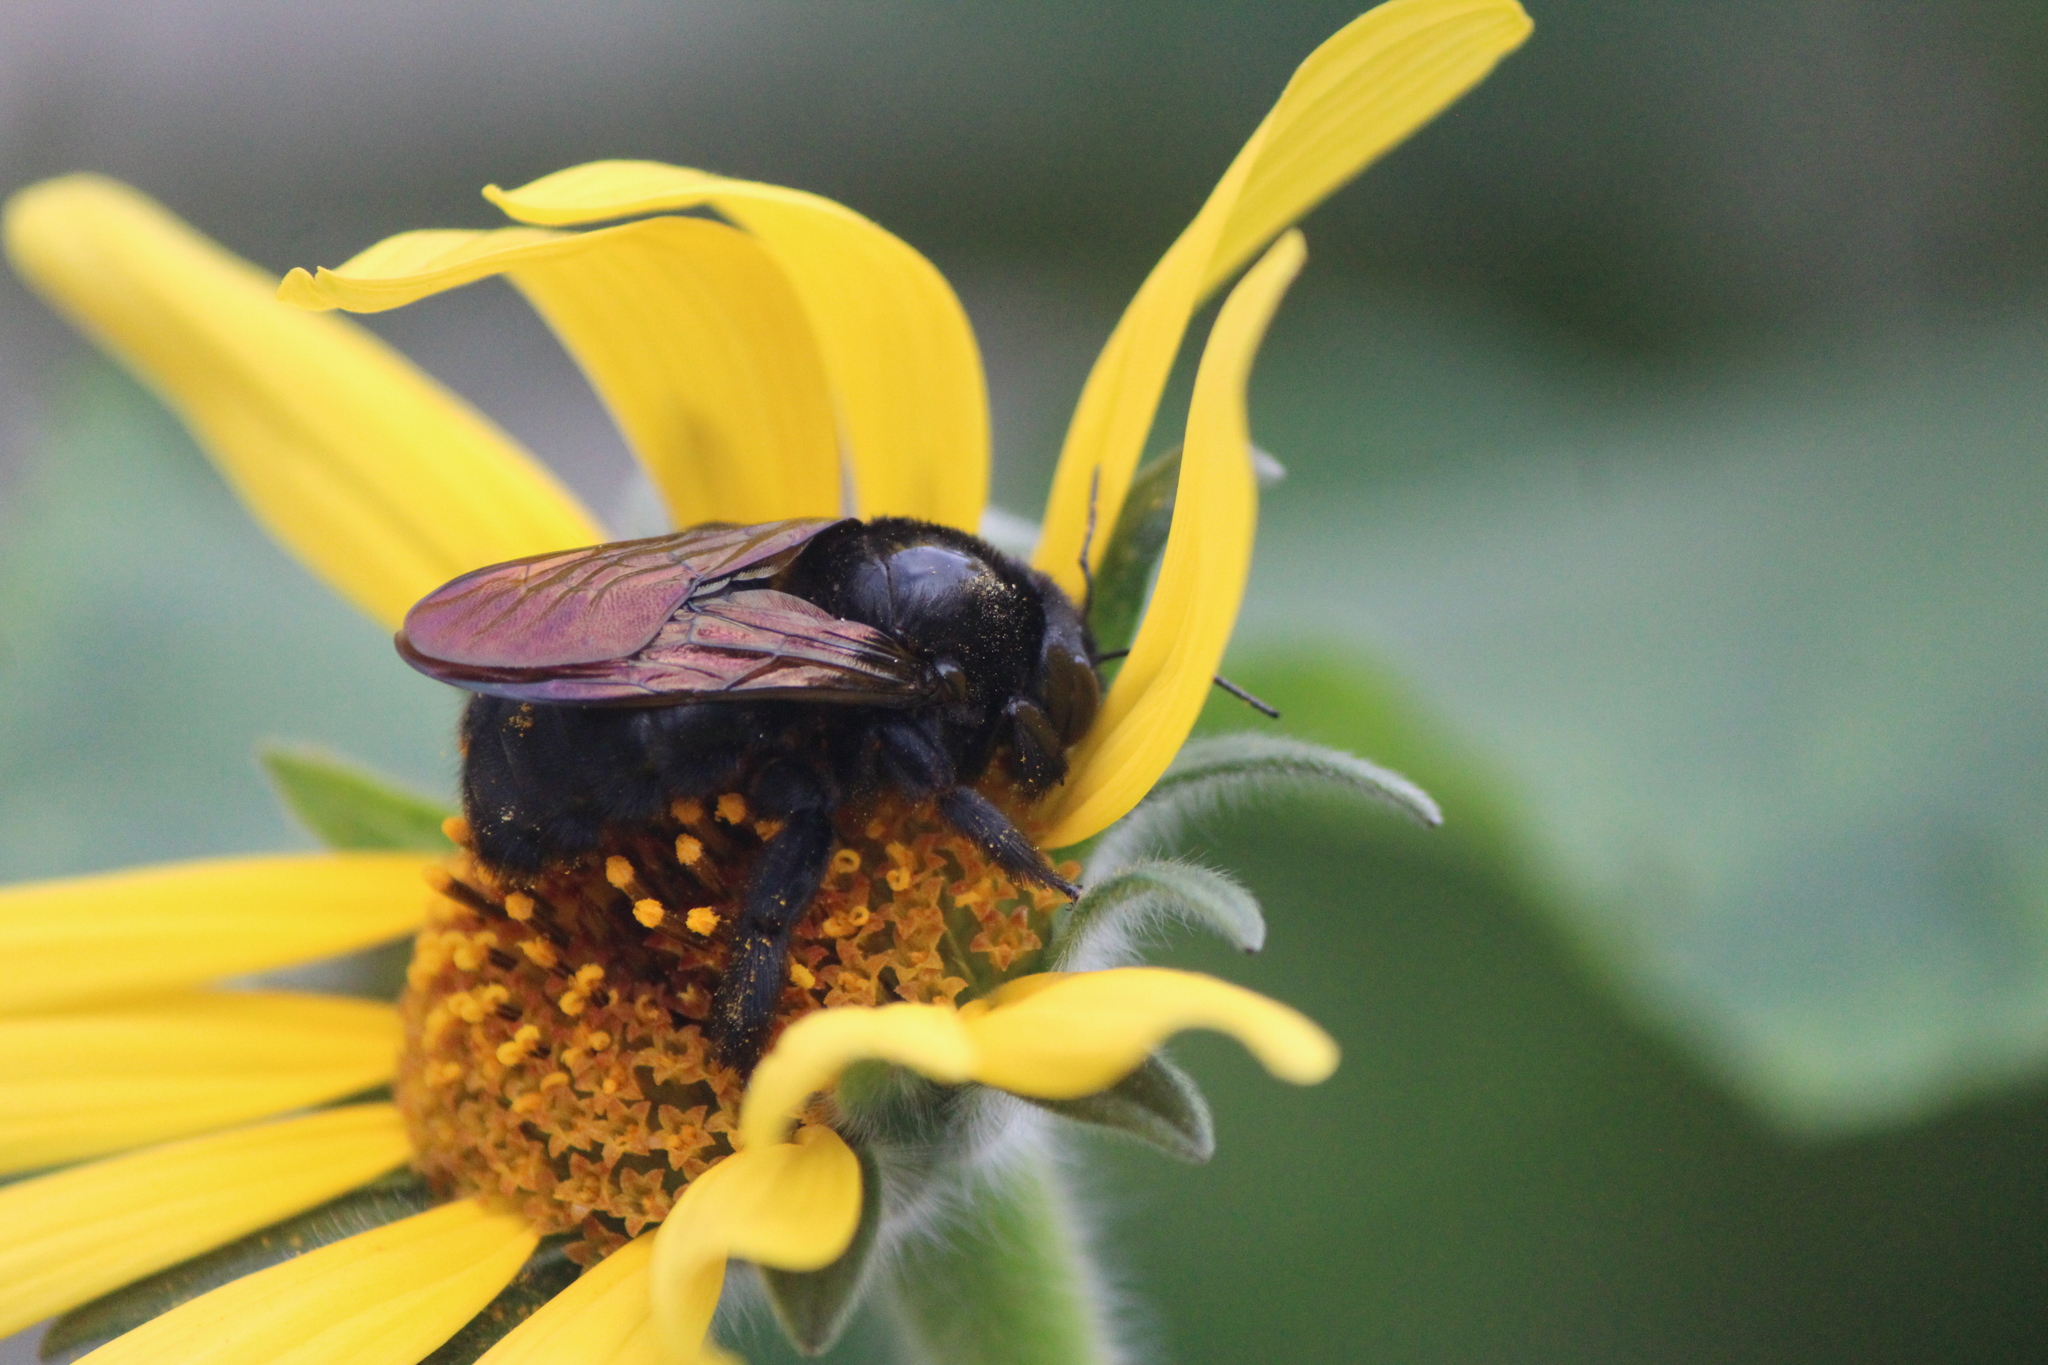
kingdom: Animalia
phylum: Arthropoda
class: Insecta
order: Hymenoptera
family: Apidae
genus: Xylocopa
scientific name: Xylocopa sonorina
